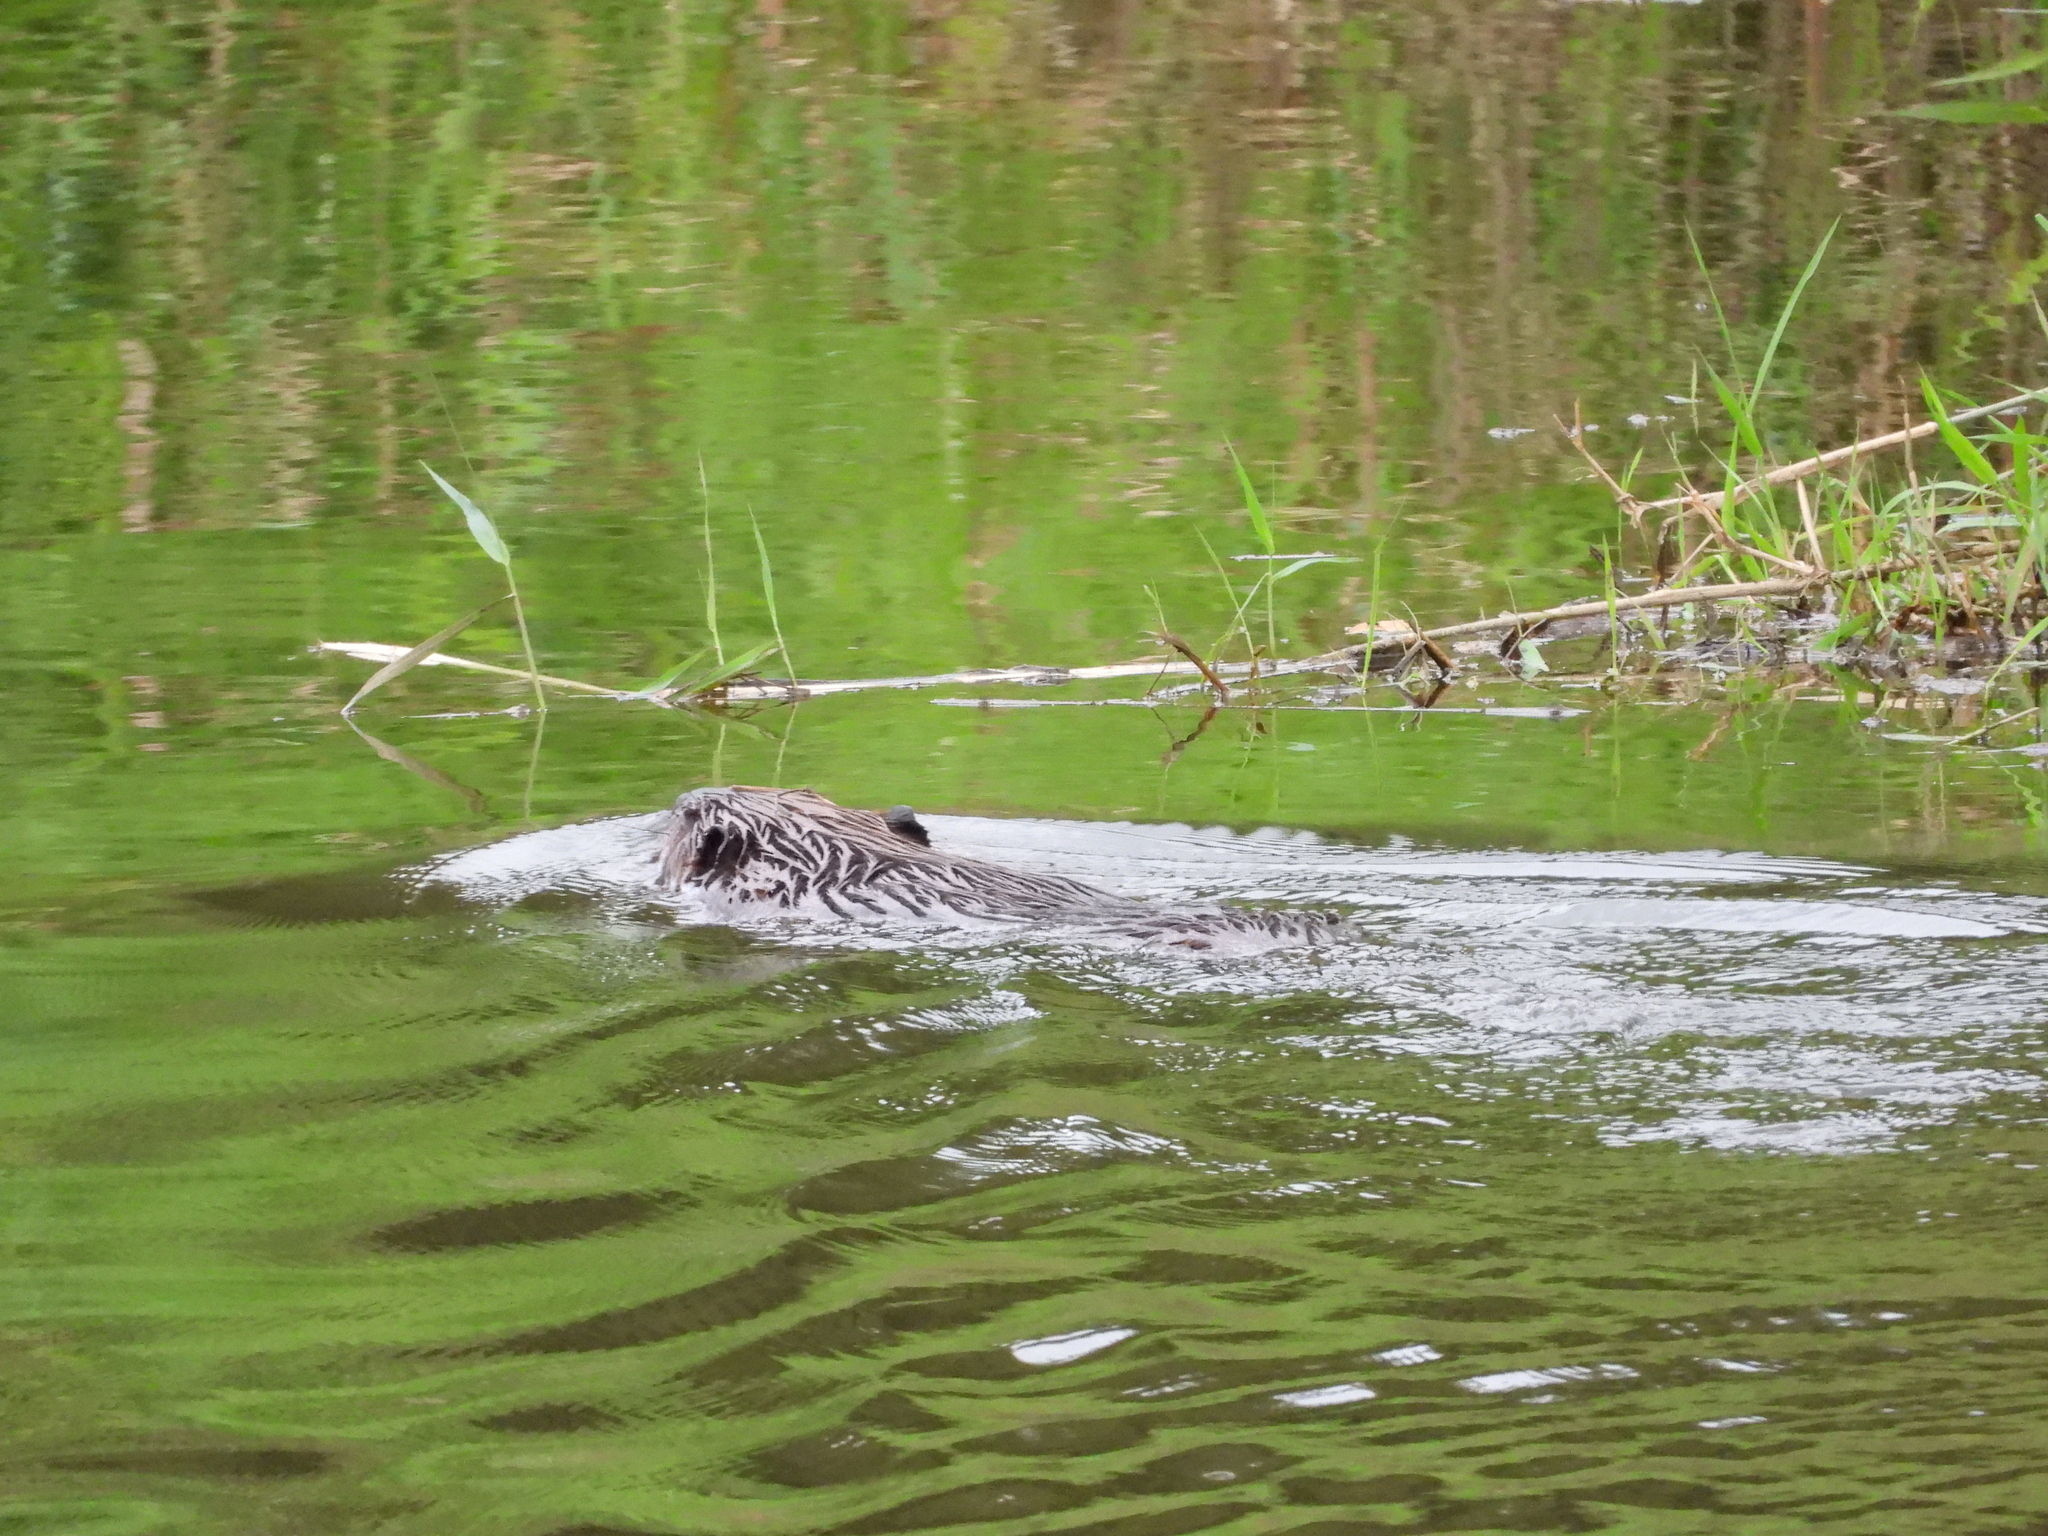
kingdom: Animalia
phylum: Chordata
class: Mammalia
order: Rodentia
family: Castoridae
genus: Castor
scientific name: Castor canadensis
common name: American beaver
